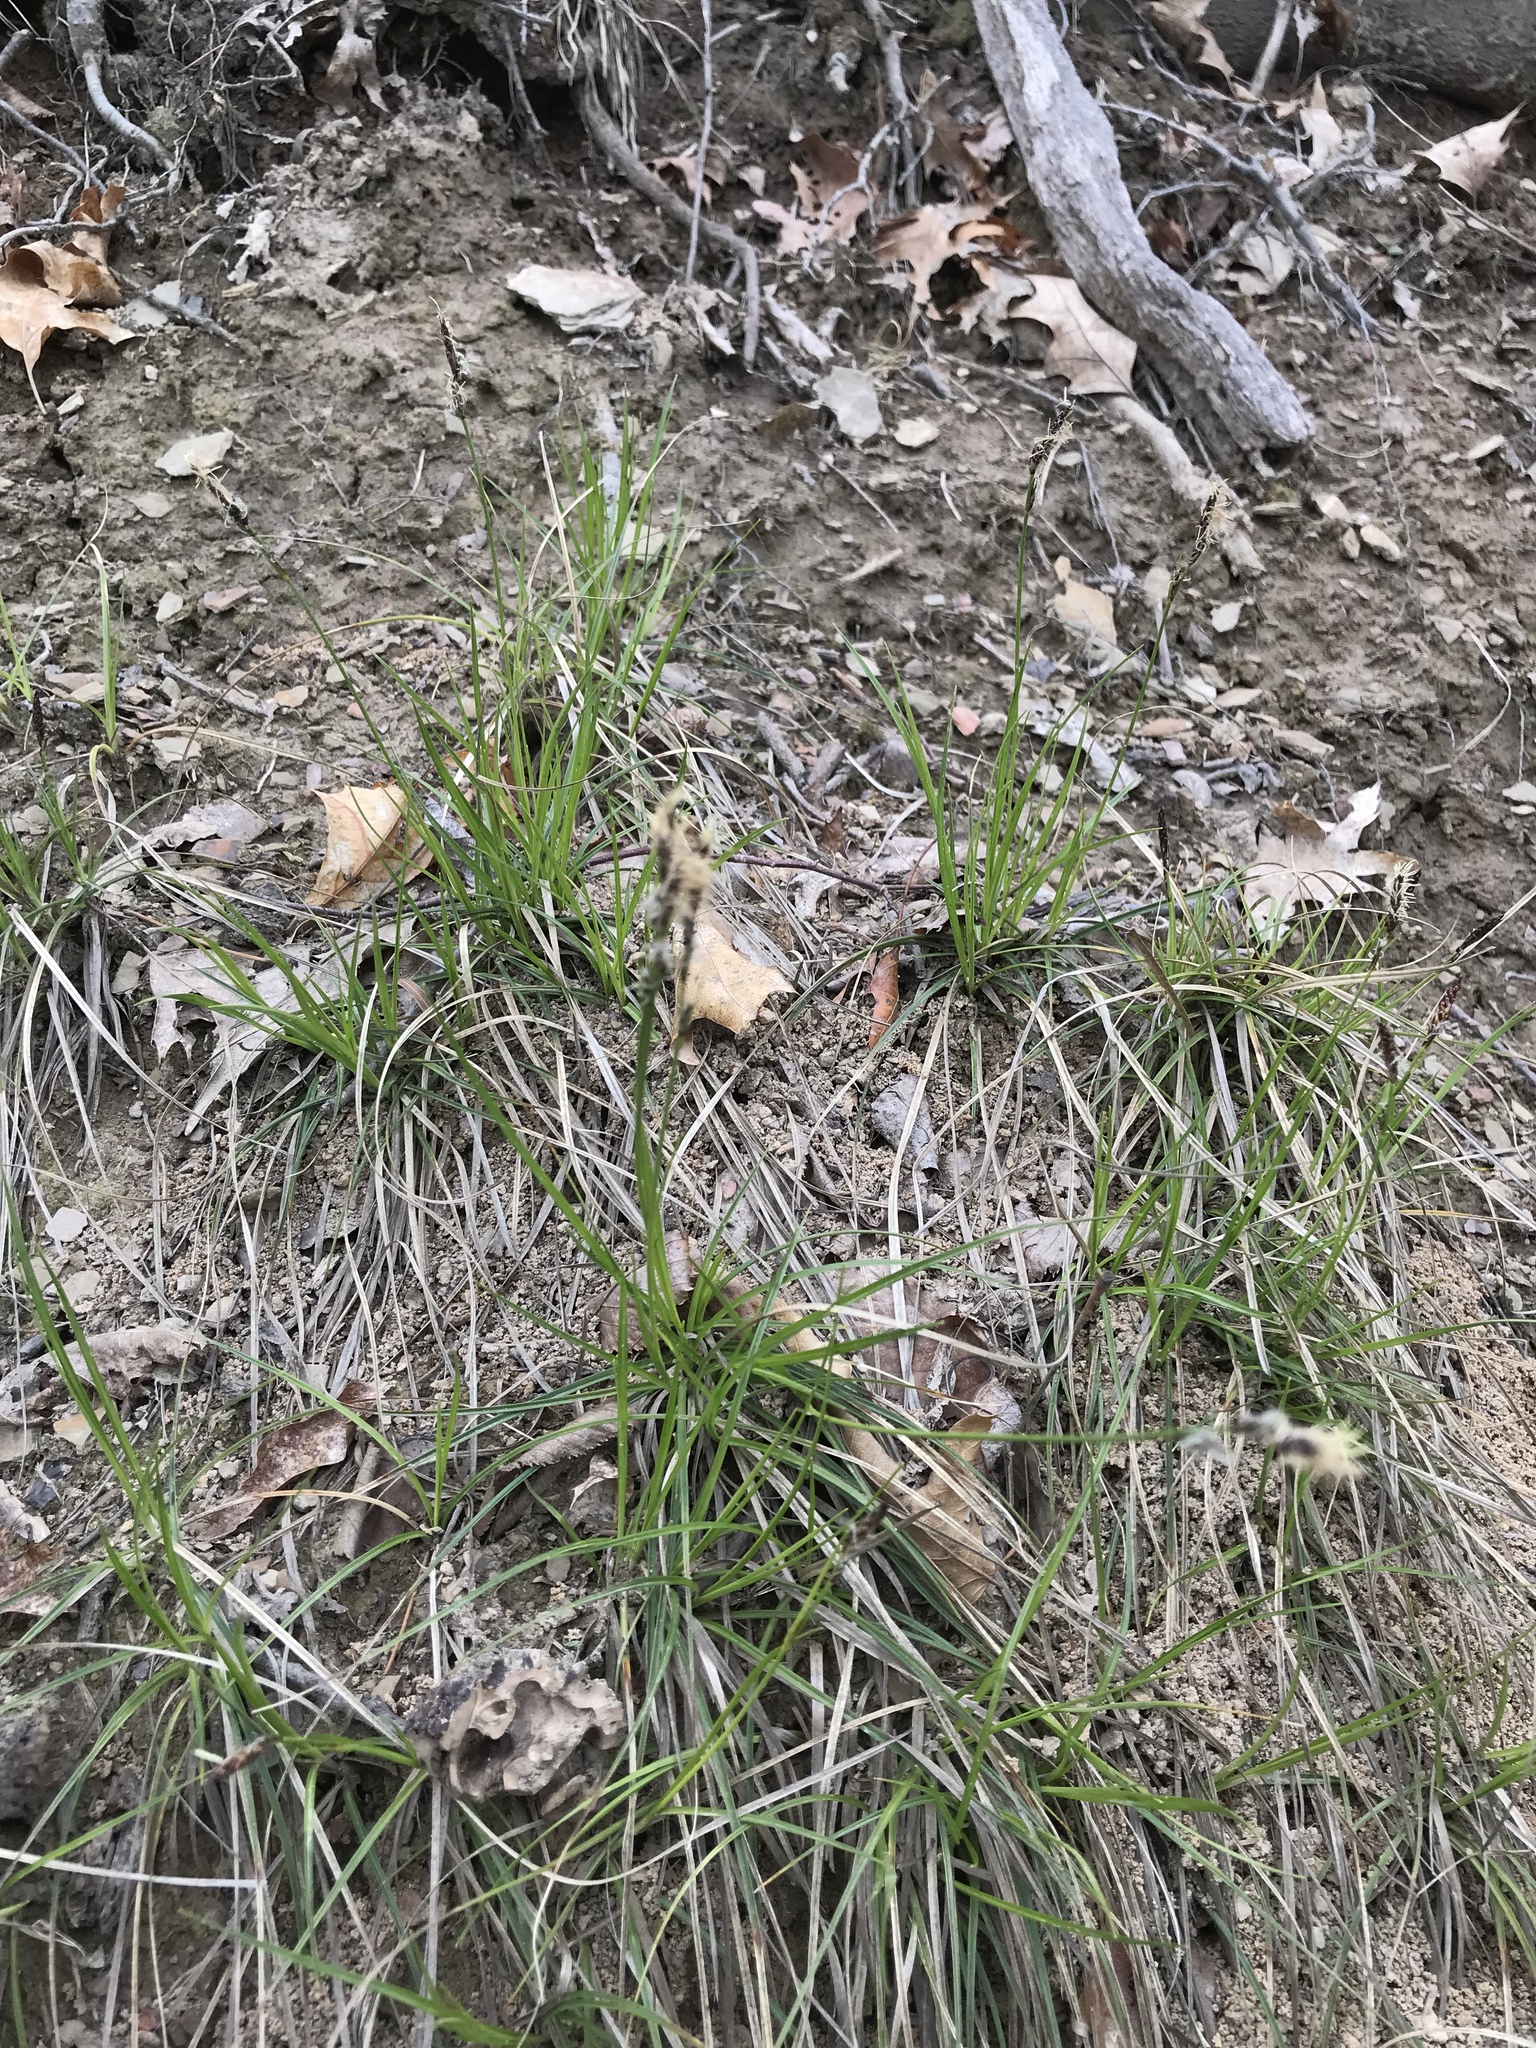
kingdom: Plantae
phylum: Tracheophyta
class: Liliopsida
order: Poales
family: Cyperaceae
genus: Carex
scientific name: Carex pensylvanica
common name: Common oak sedge
